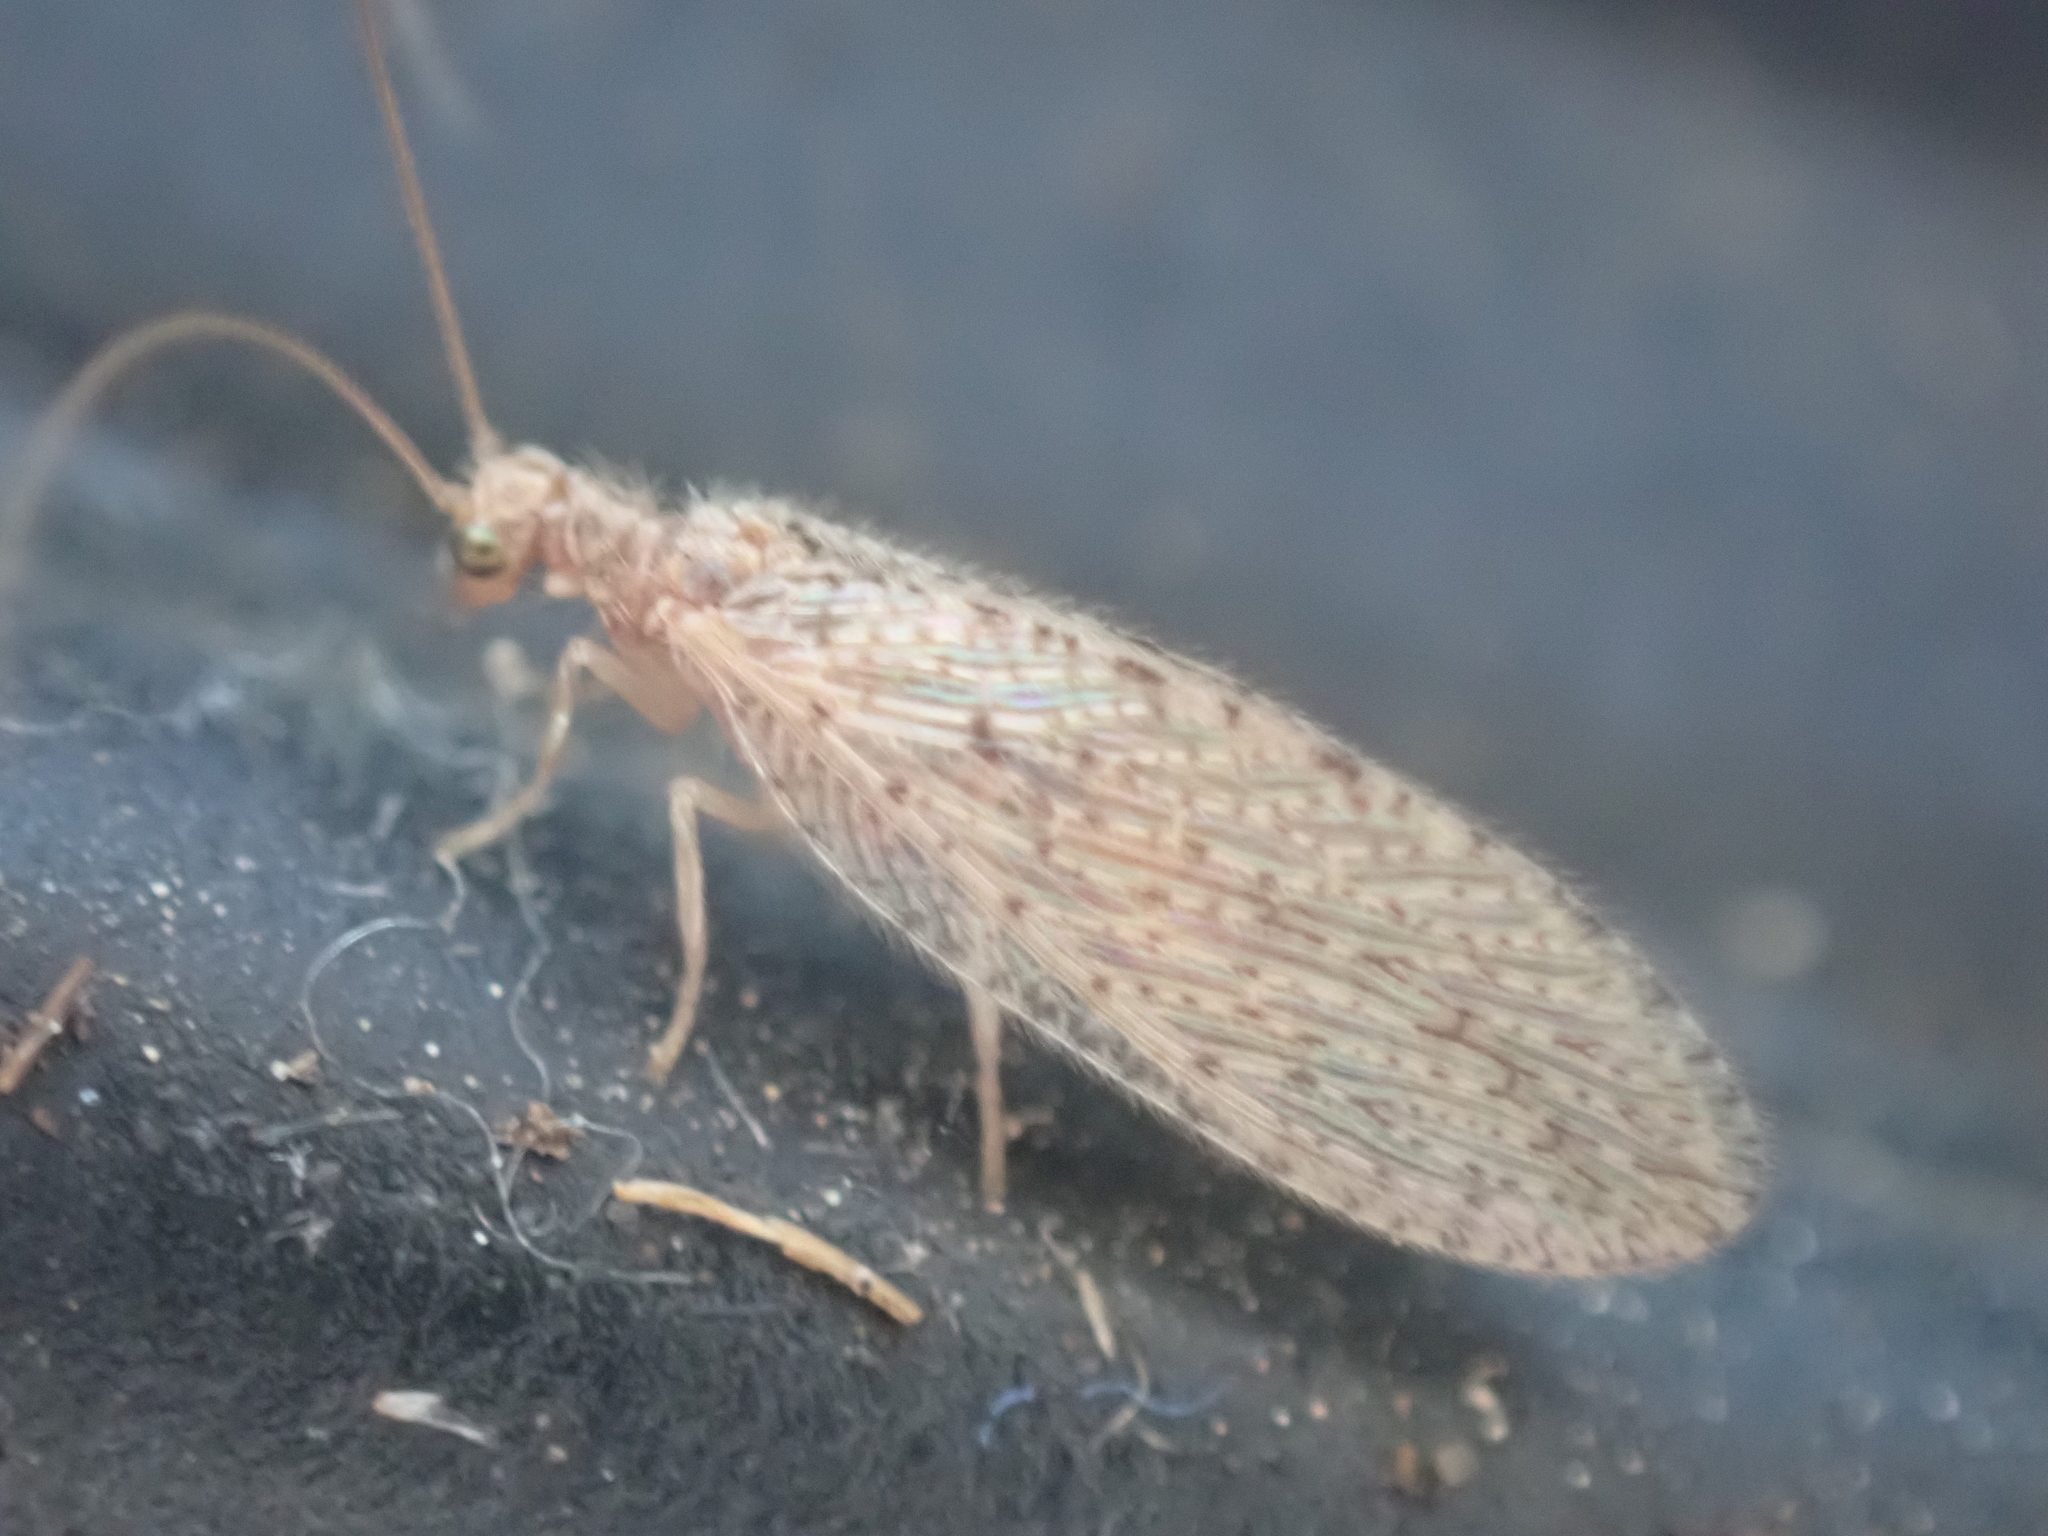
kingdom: Animalia
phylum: Arthropoda
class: Insecta
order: Neuroptera
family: Hemerobiidae
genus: Micromus
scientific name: Micromus subanticus
